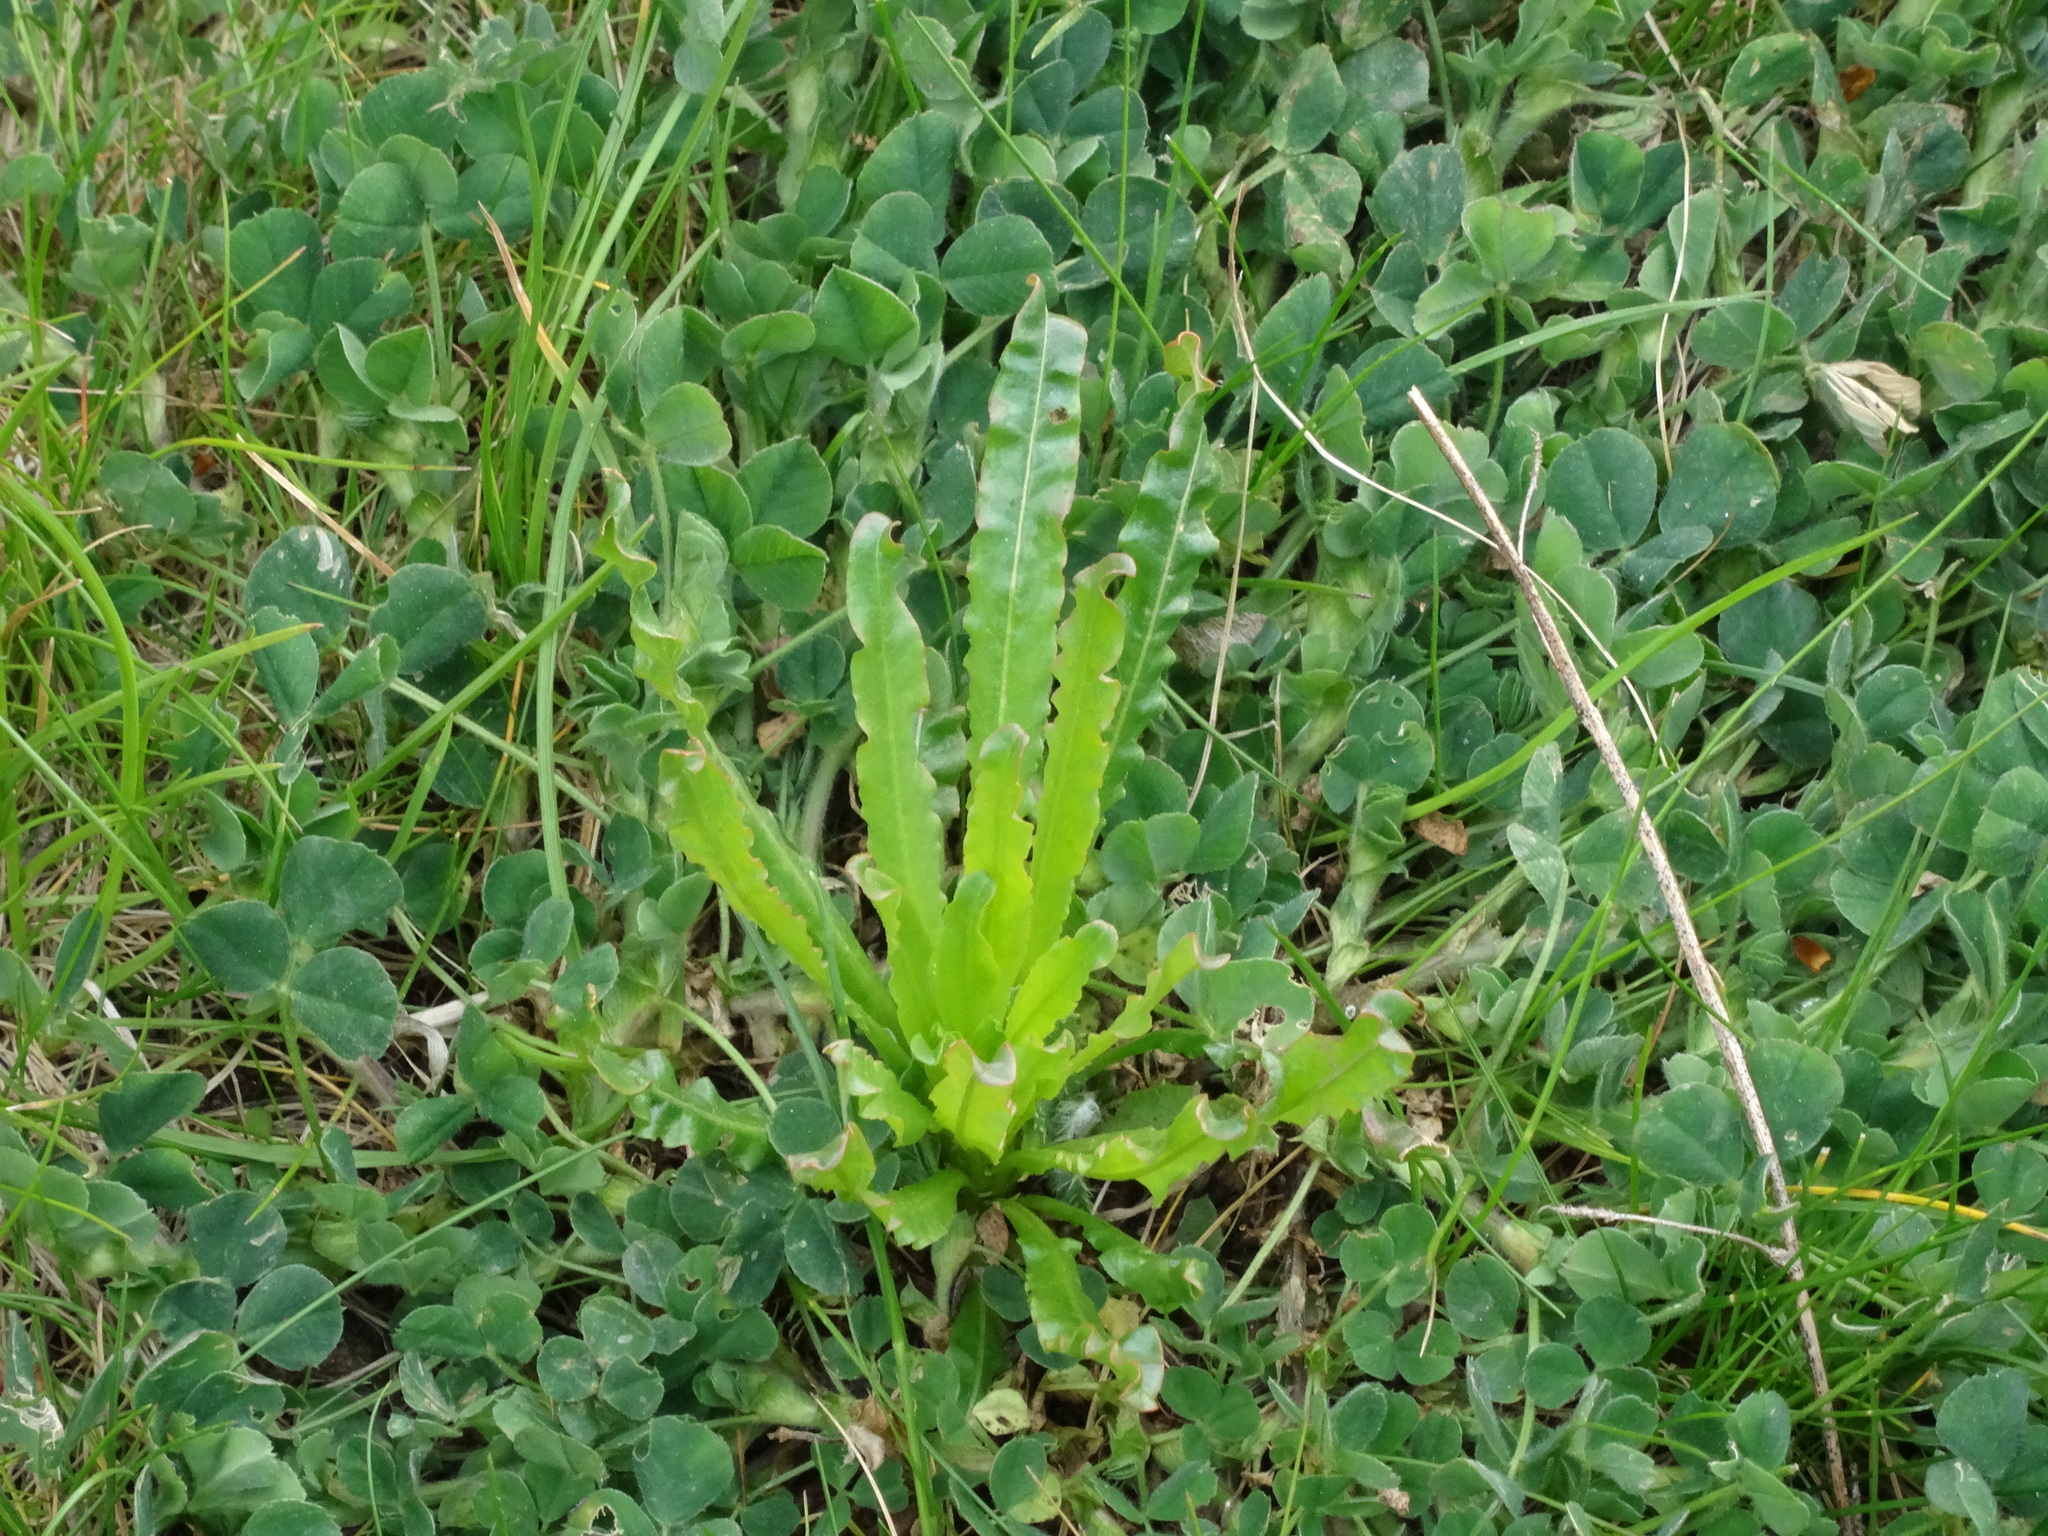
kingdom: Plantae
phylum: Tracheophyta
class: Magnoliopsida
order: Brassicales
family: Resedaceae
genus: Reseda
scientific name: Reseda luteola
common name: Weld
